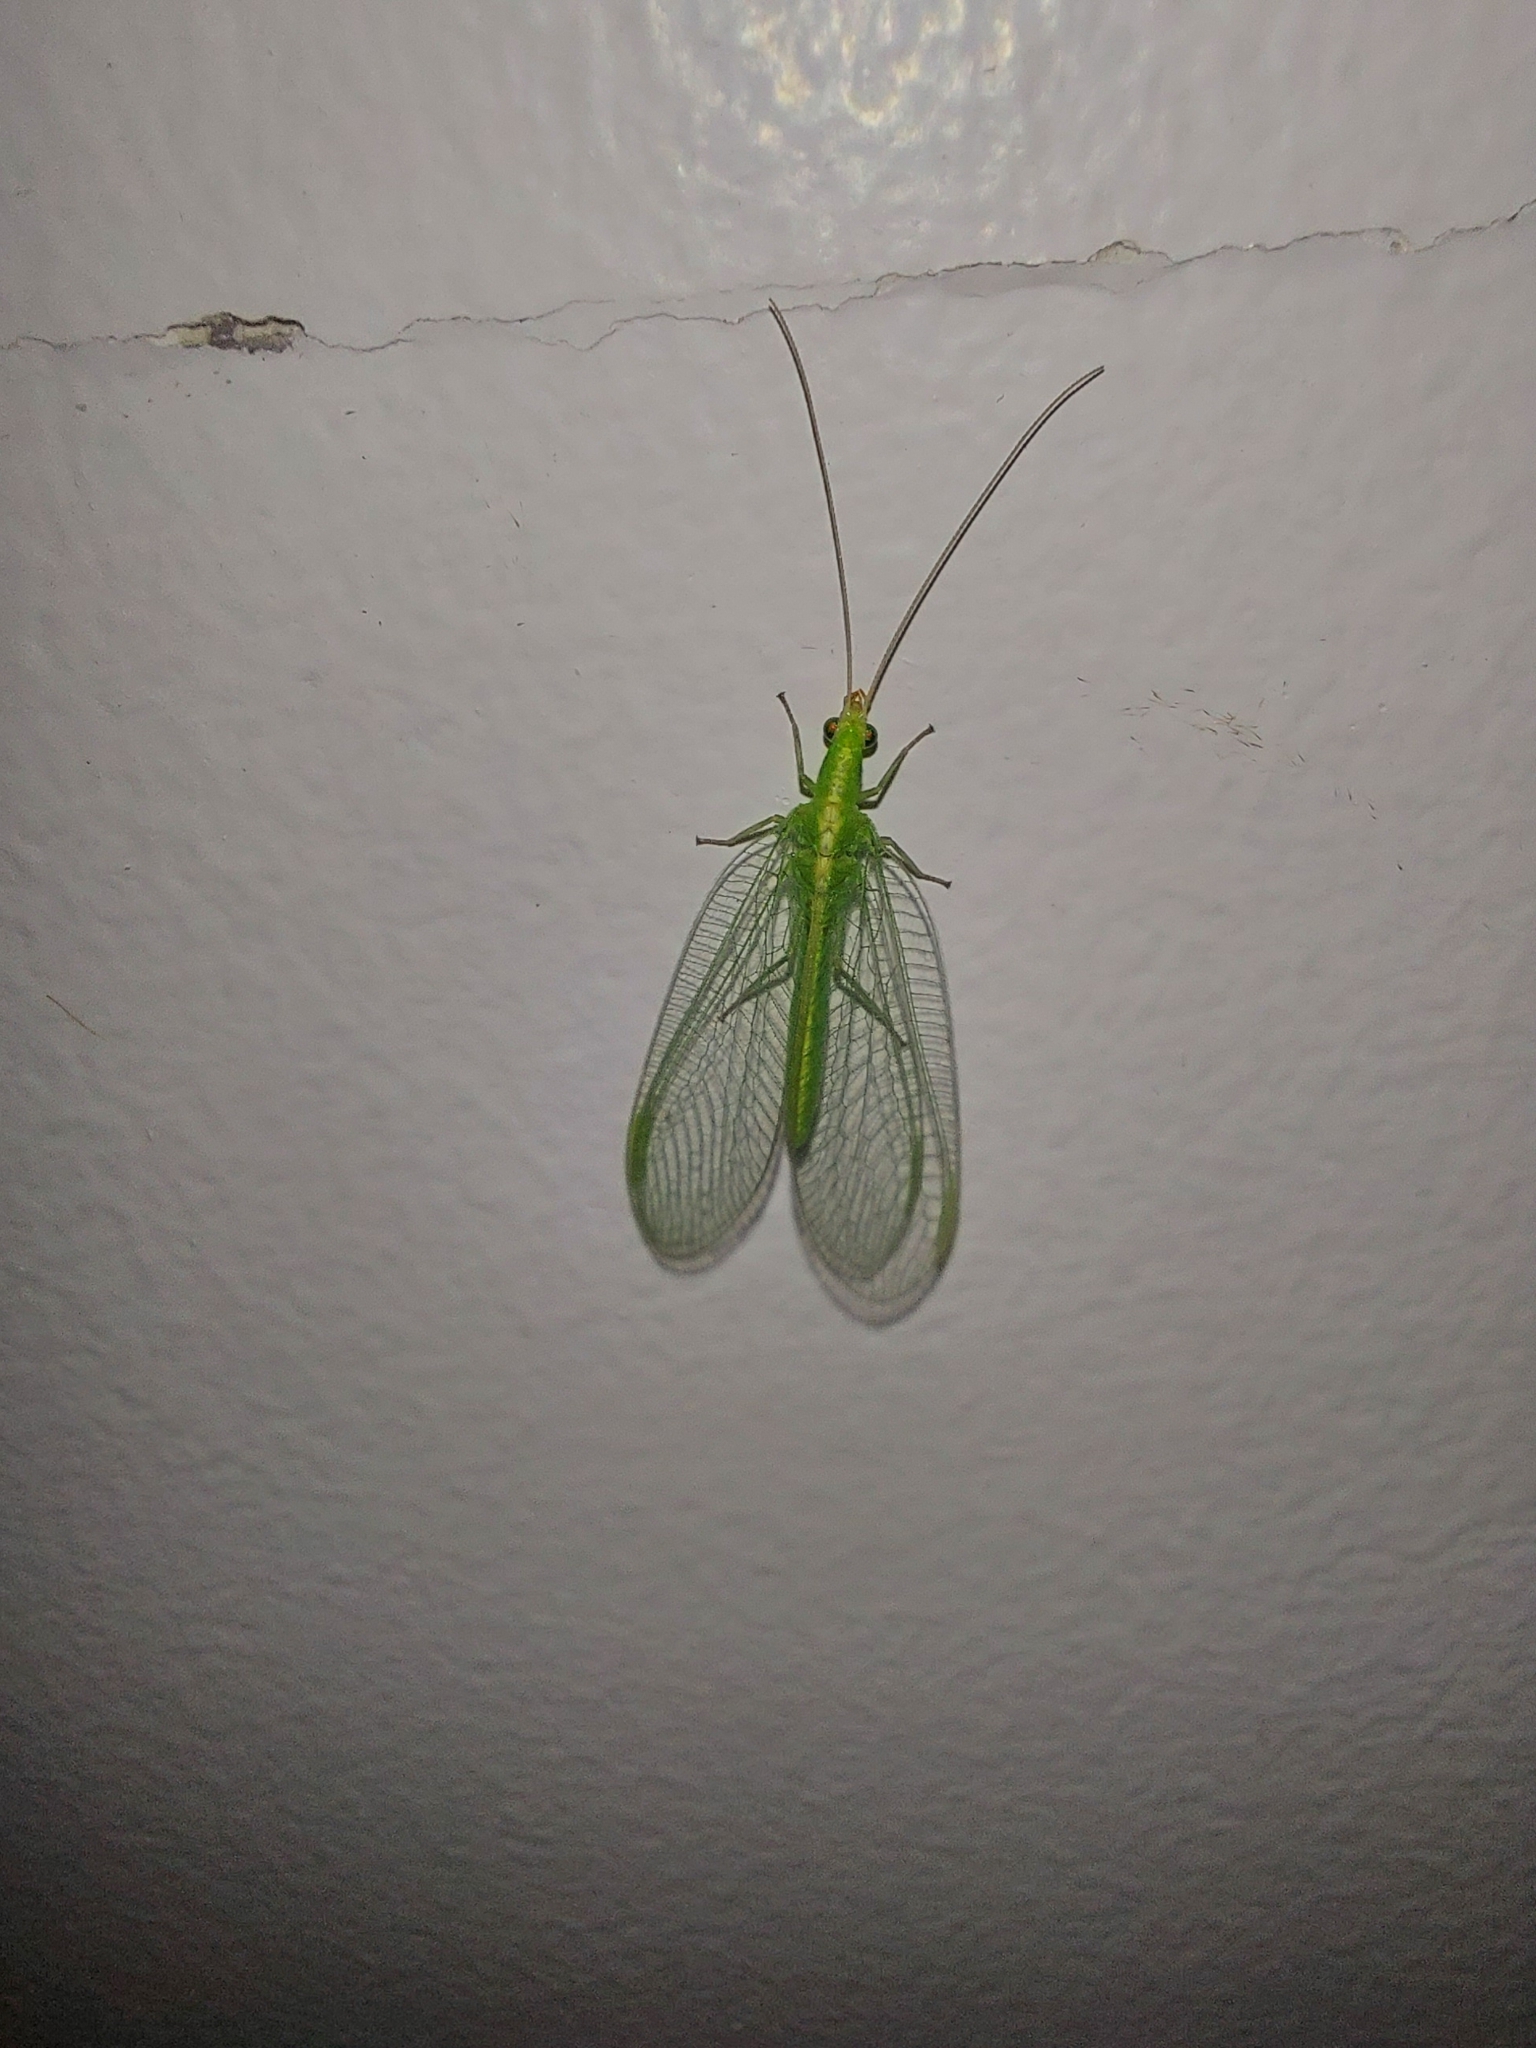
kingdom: Animalia
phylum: Arthropoda
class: Insecta
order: Neuroptera
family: Chrysopidae
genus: Chrysoperla
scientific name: Chrysoperla
